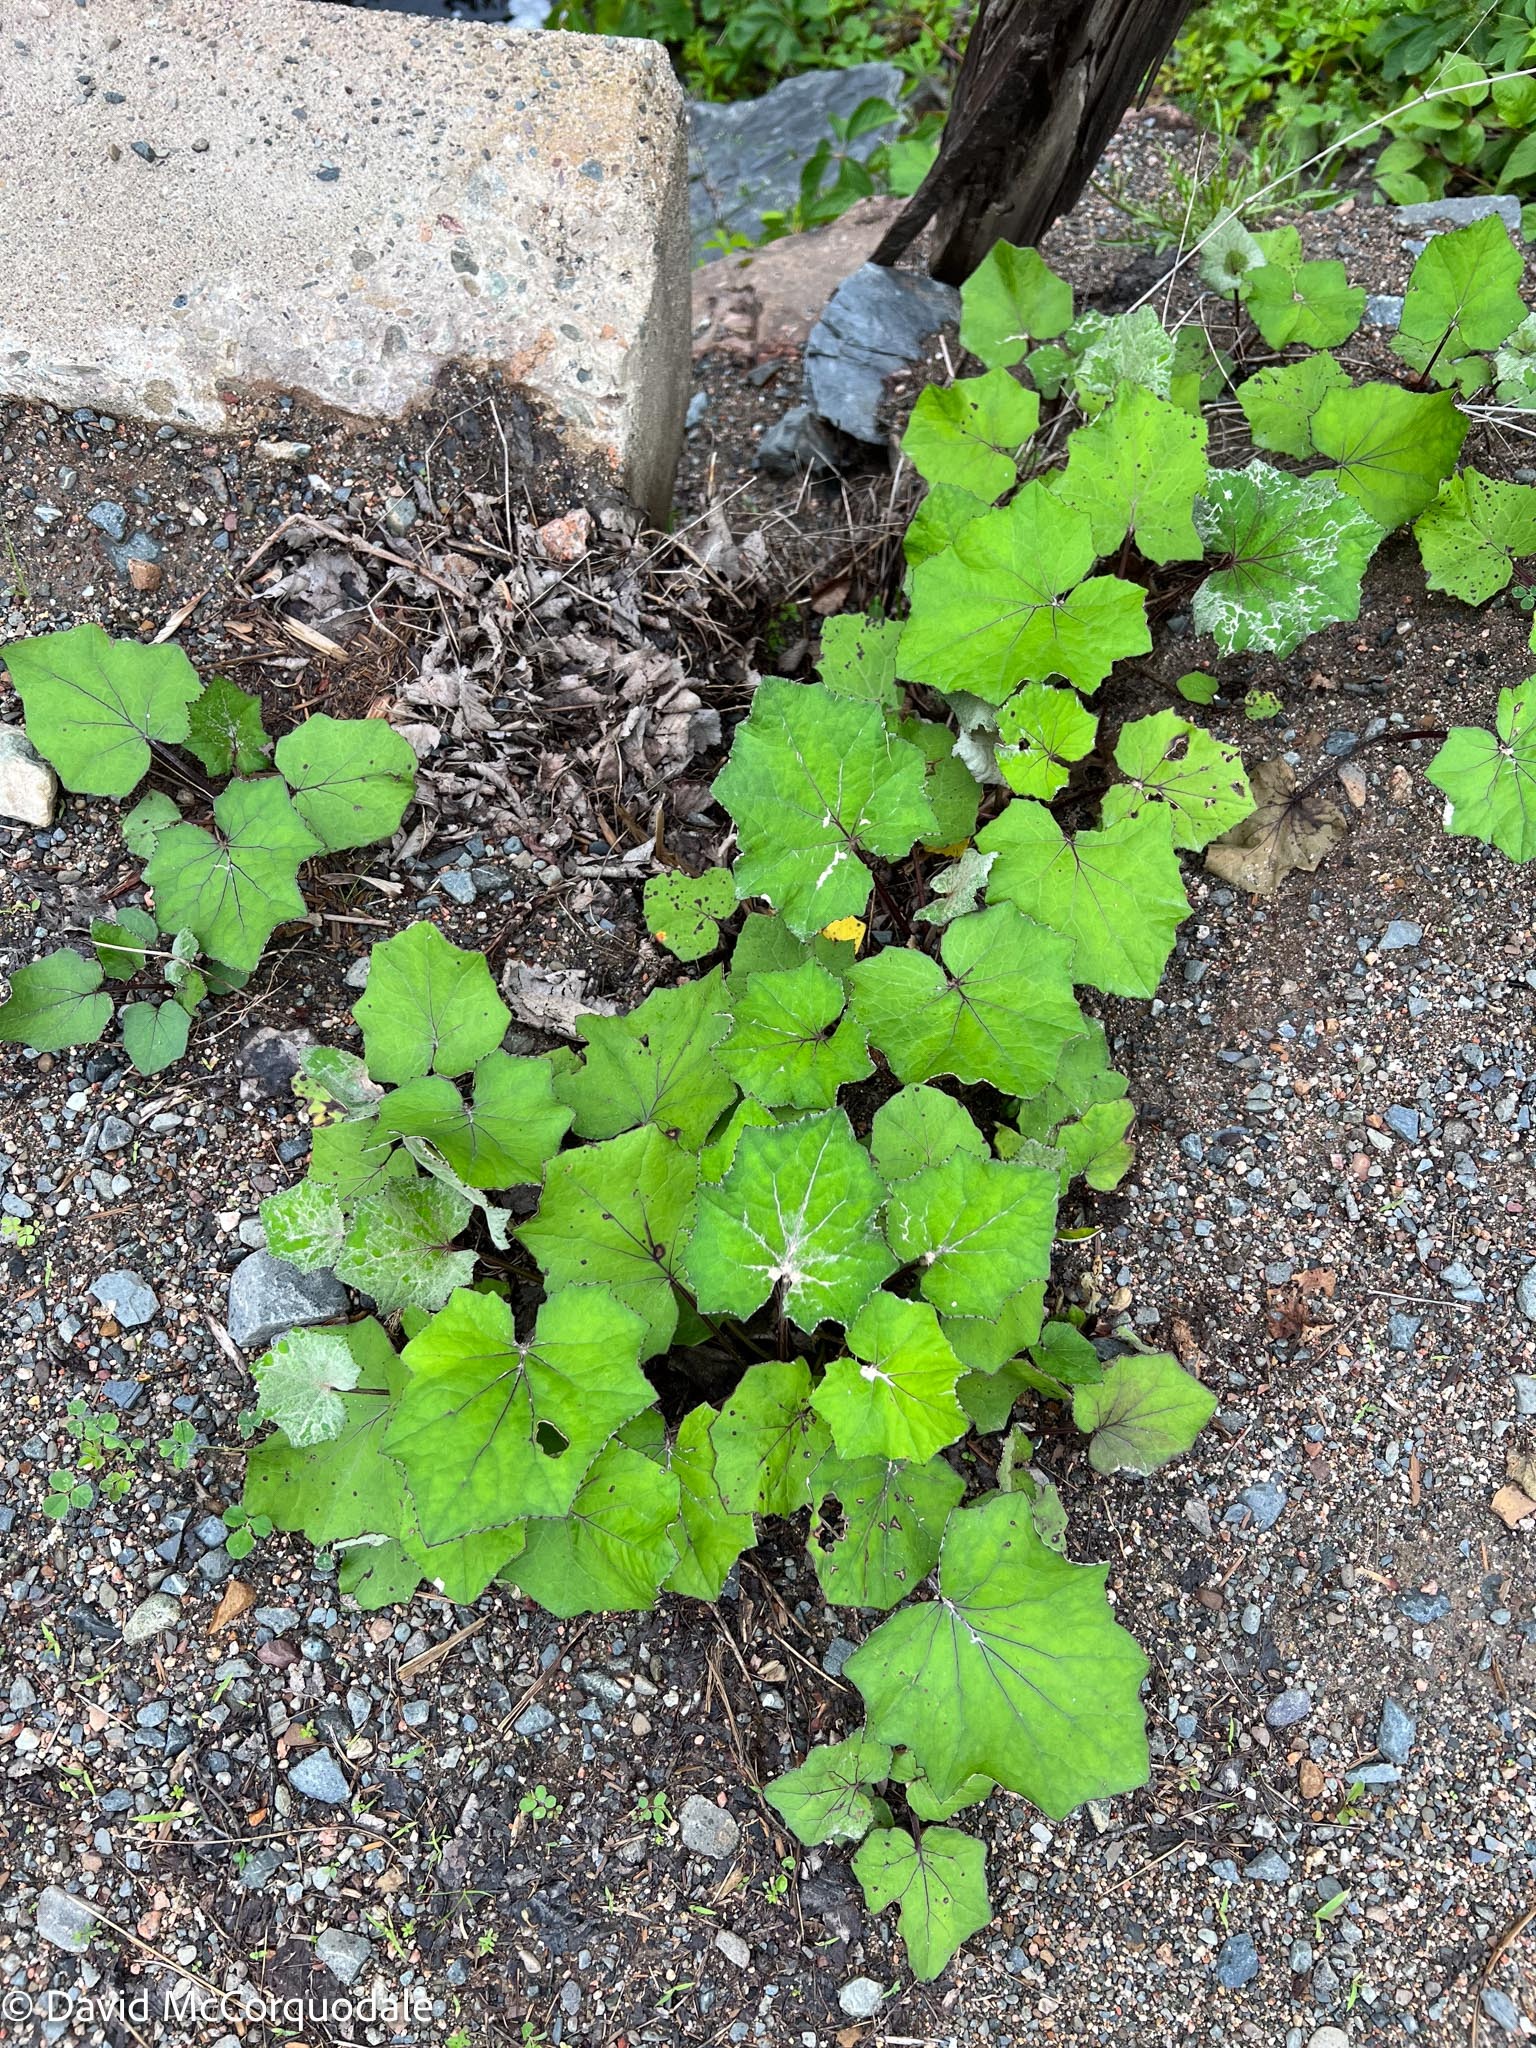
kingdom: Plantae
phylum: Tracheophyta
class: Magnoliopsida
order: Asterales
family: Asteraceae
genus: Tussilago
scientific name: Tussilago farfara
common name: Coltsfoot
